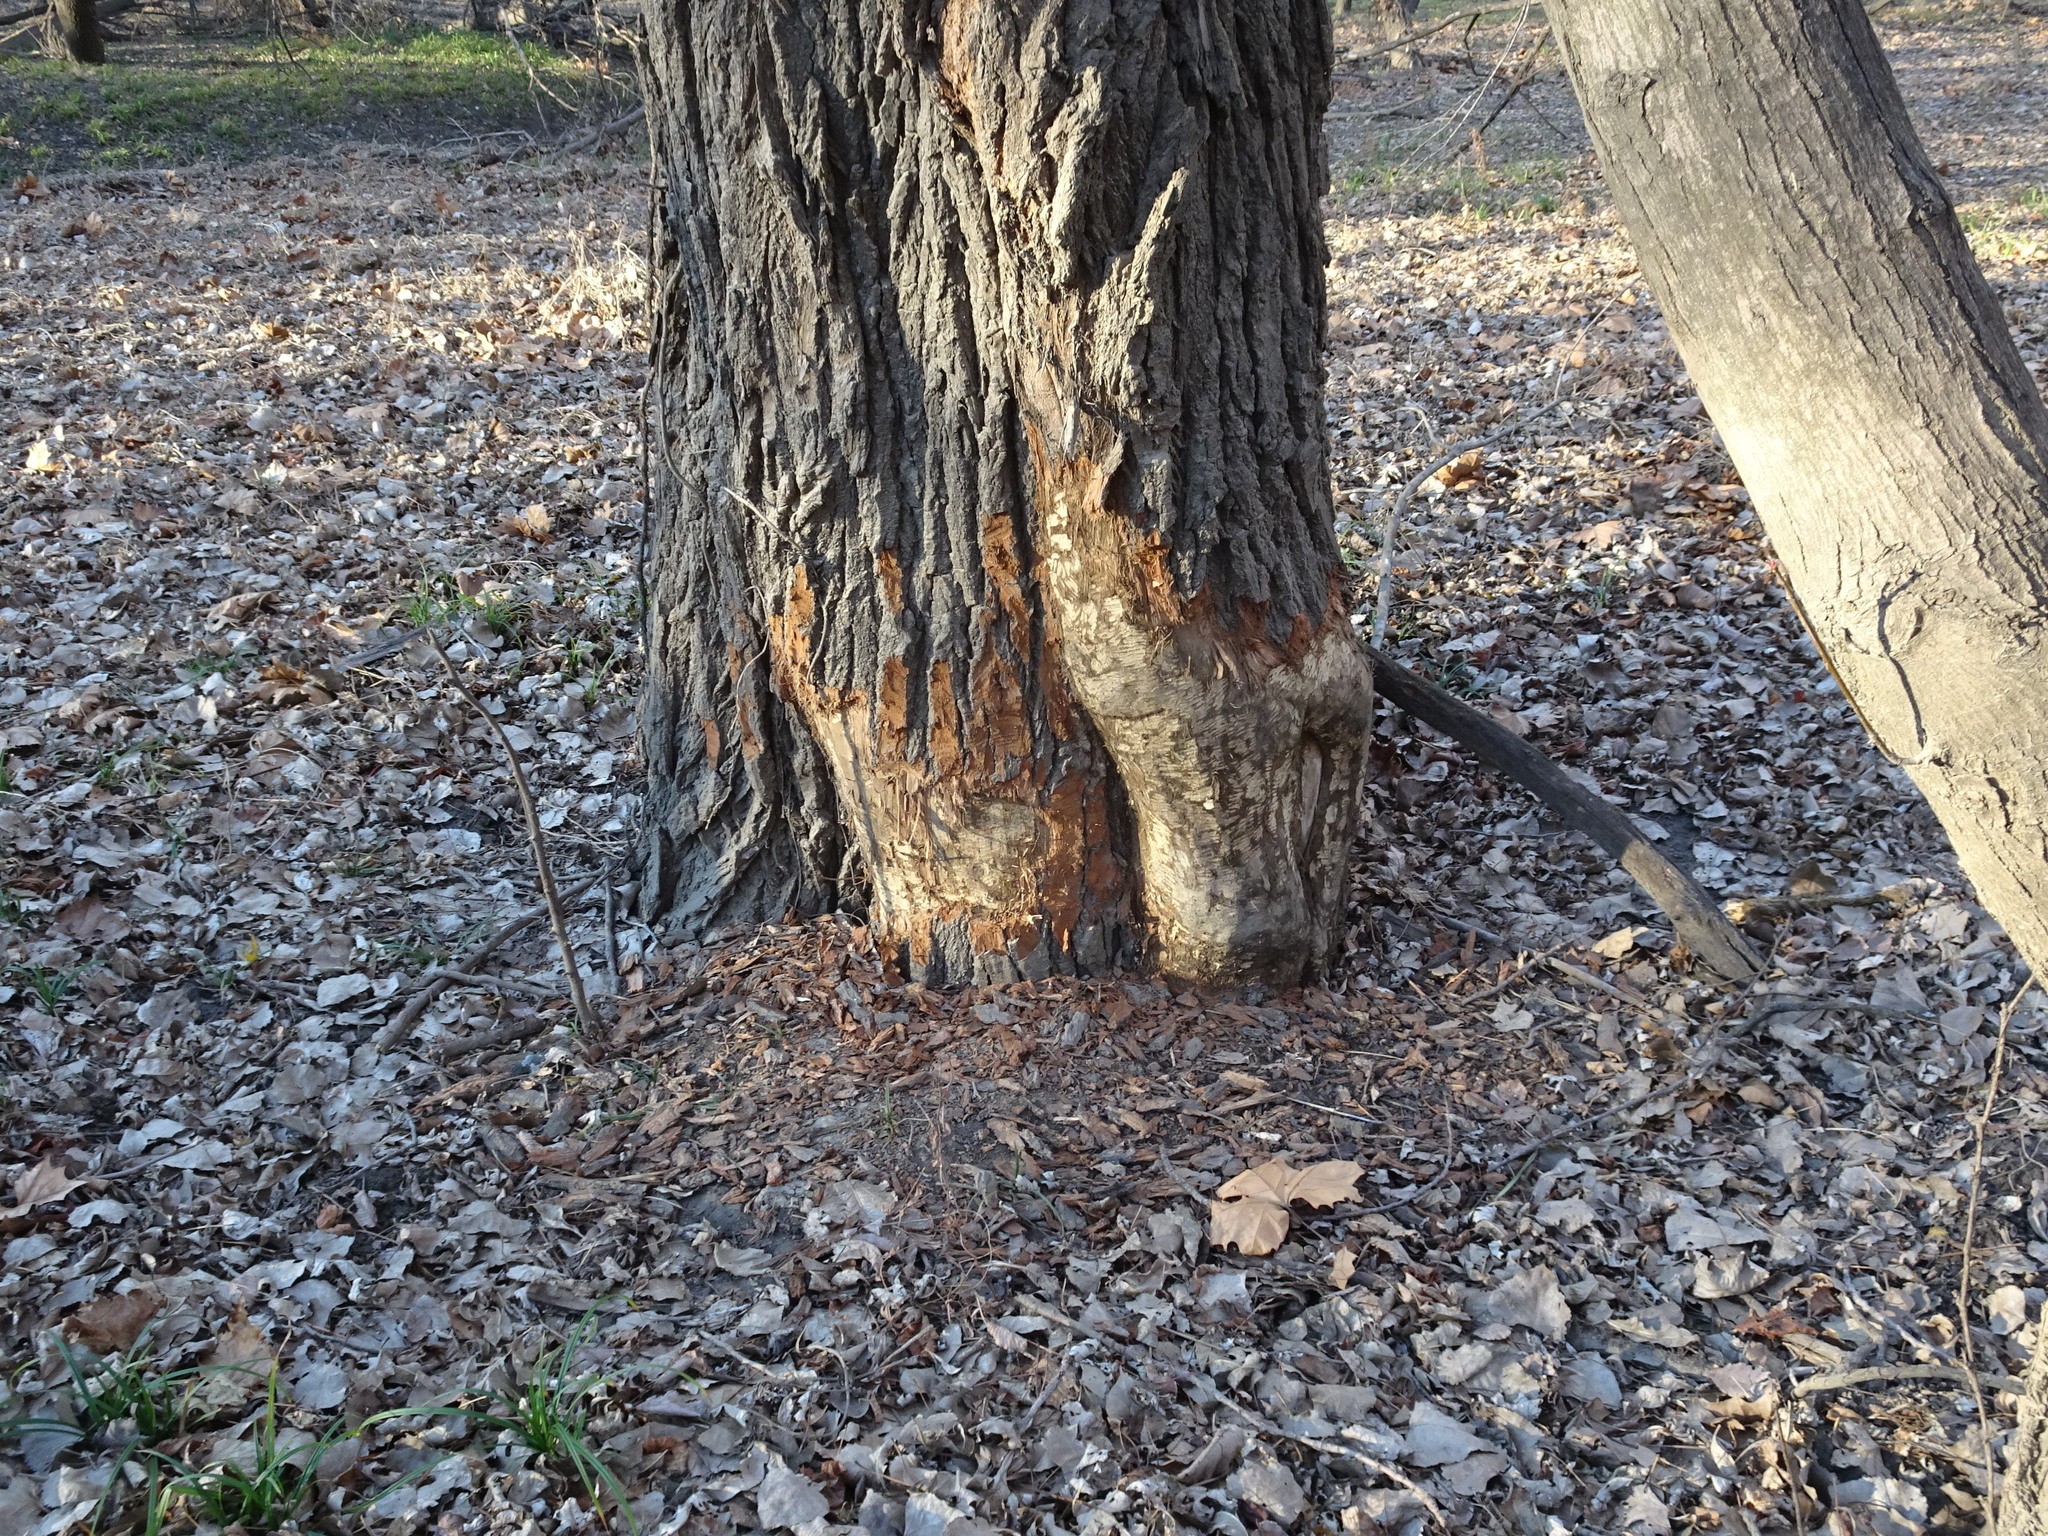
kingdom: Animalia
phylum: Chordata
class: Mammalia
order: Rodentia
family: Castoridae
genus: Castor
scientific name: Castor canadensis
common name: American beaver
